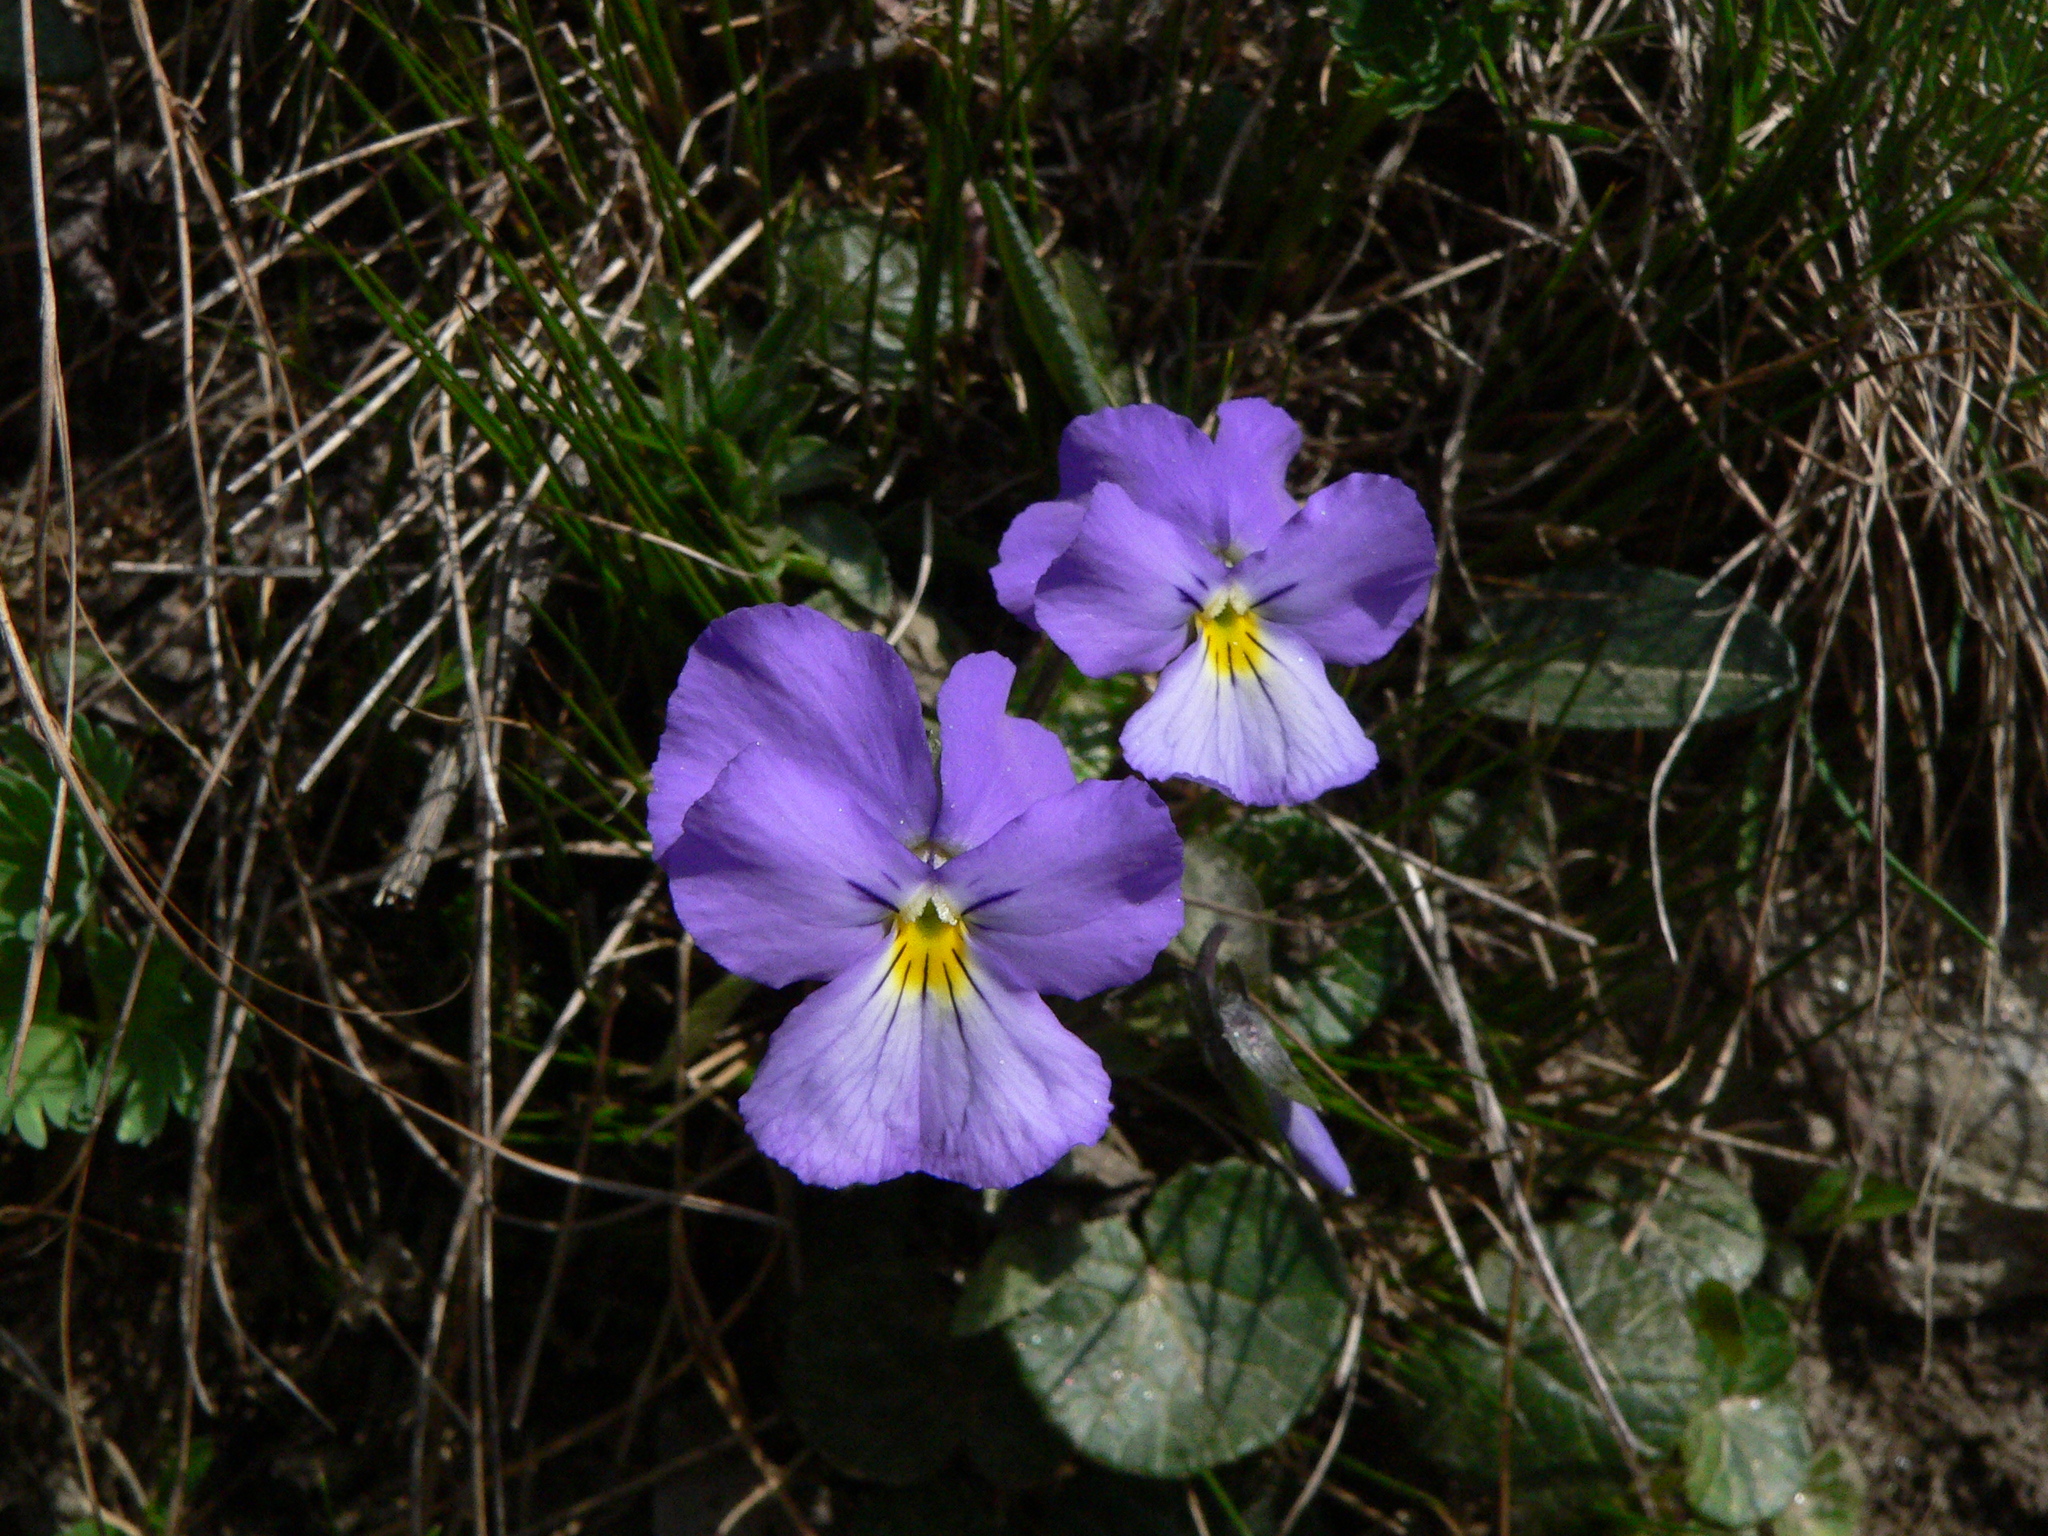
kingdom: Plantae
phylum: Tracheophyta
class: Magnoliopsida
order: Malpighiales
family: Violaceae
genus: Viola
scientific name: Viola calcarata
